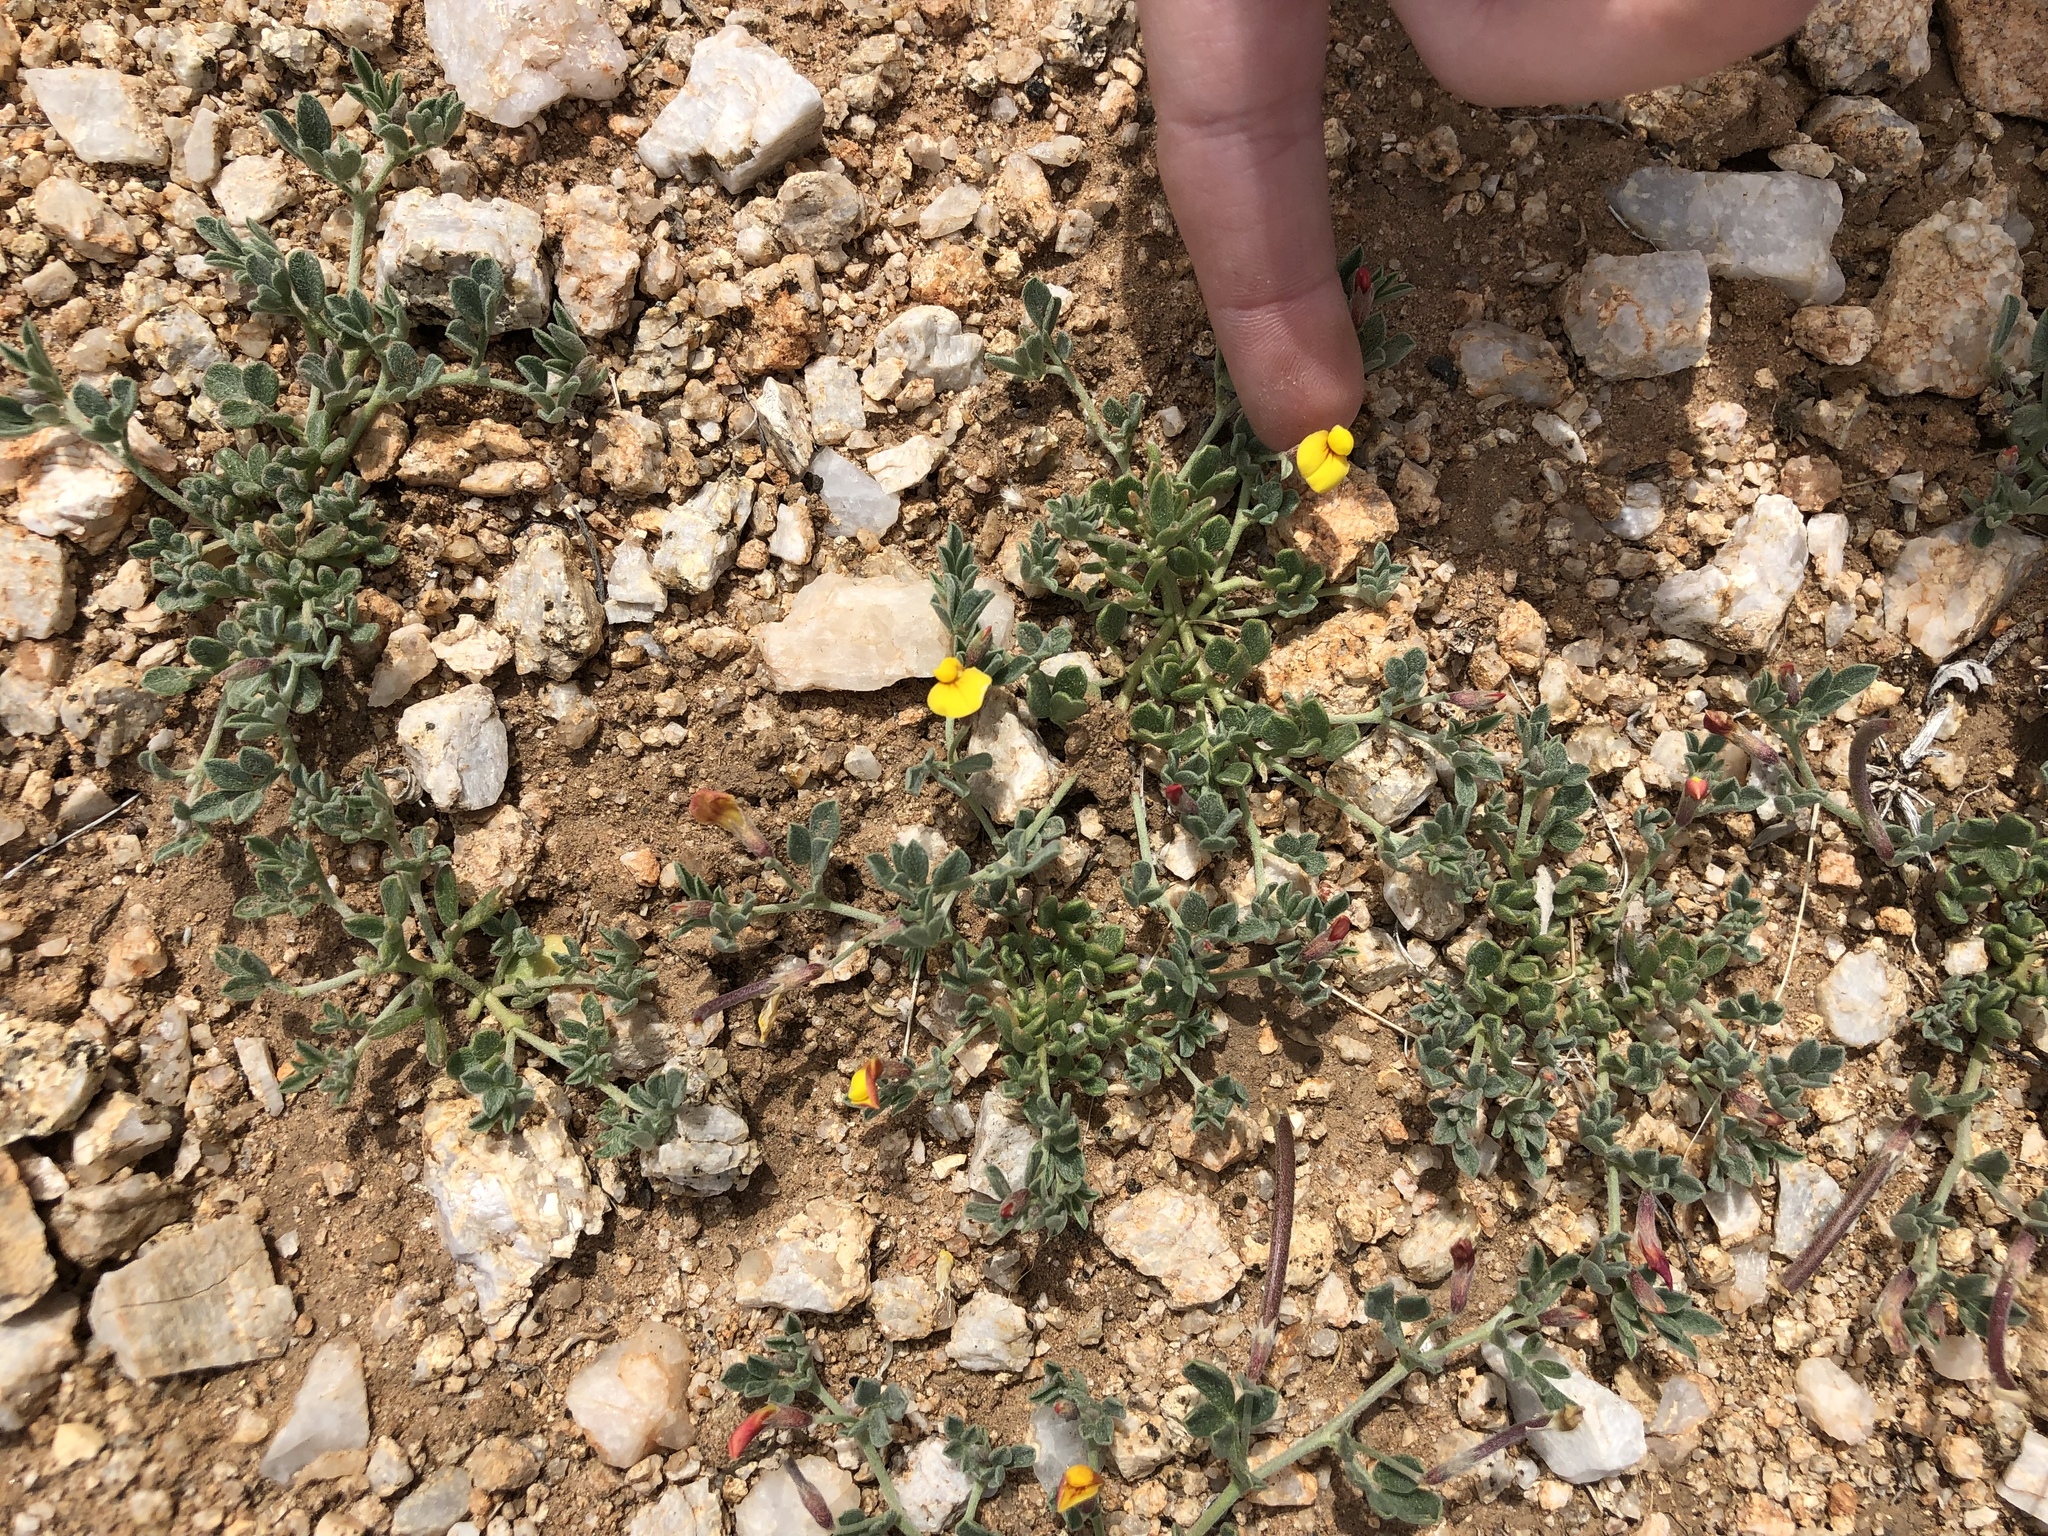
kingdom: Plantae
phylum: Tracheophyta
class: Magnoliopsida
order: Fabales
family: Fabaceae
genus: Acmispon
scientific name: Acmispon oroboides
